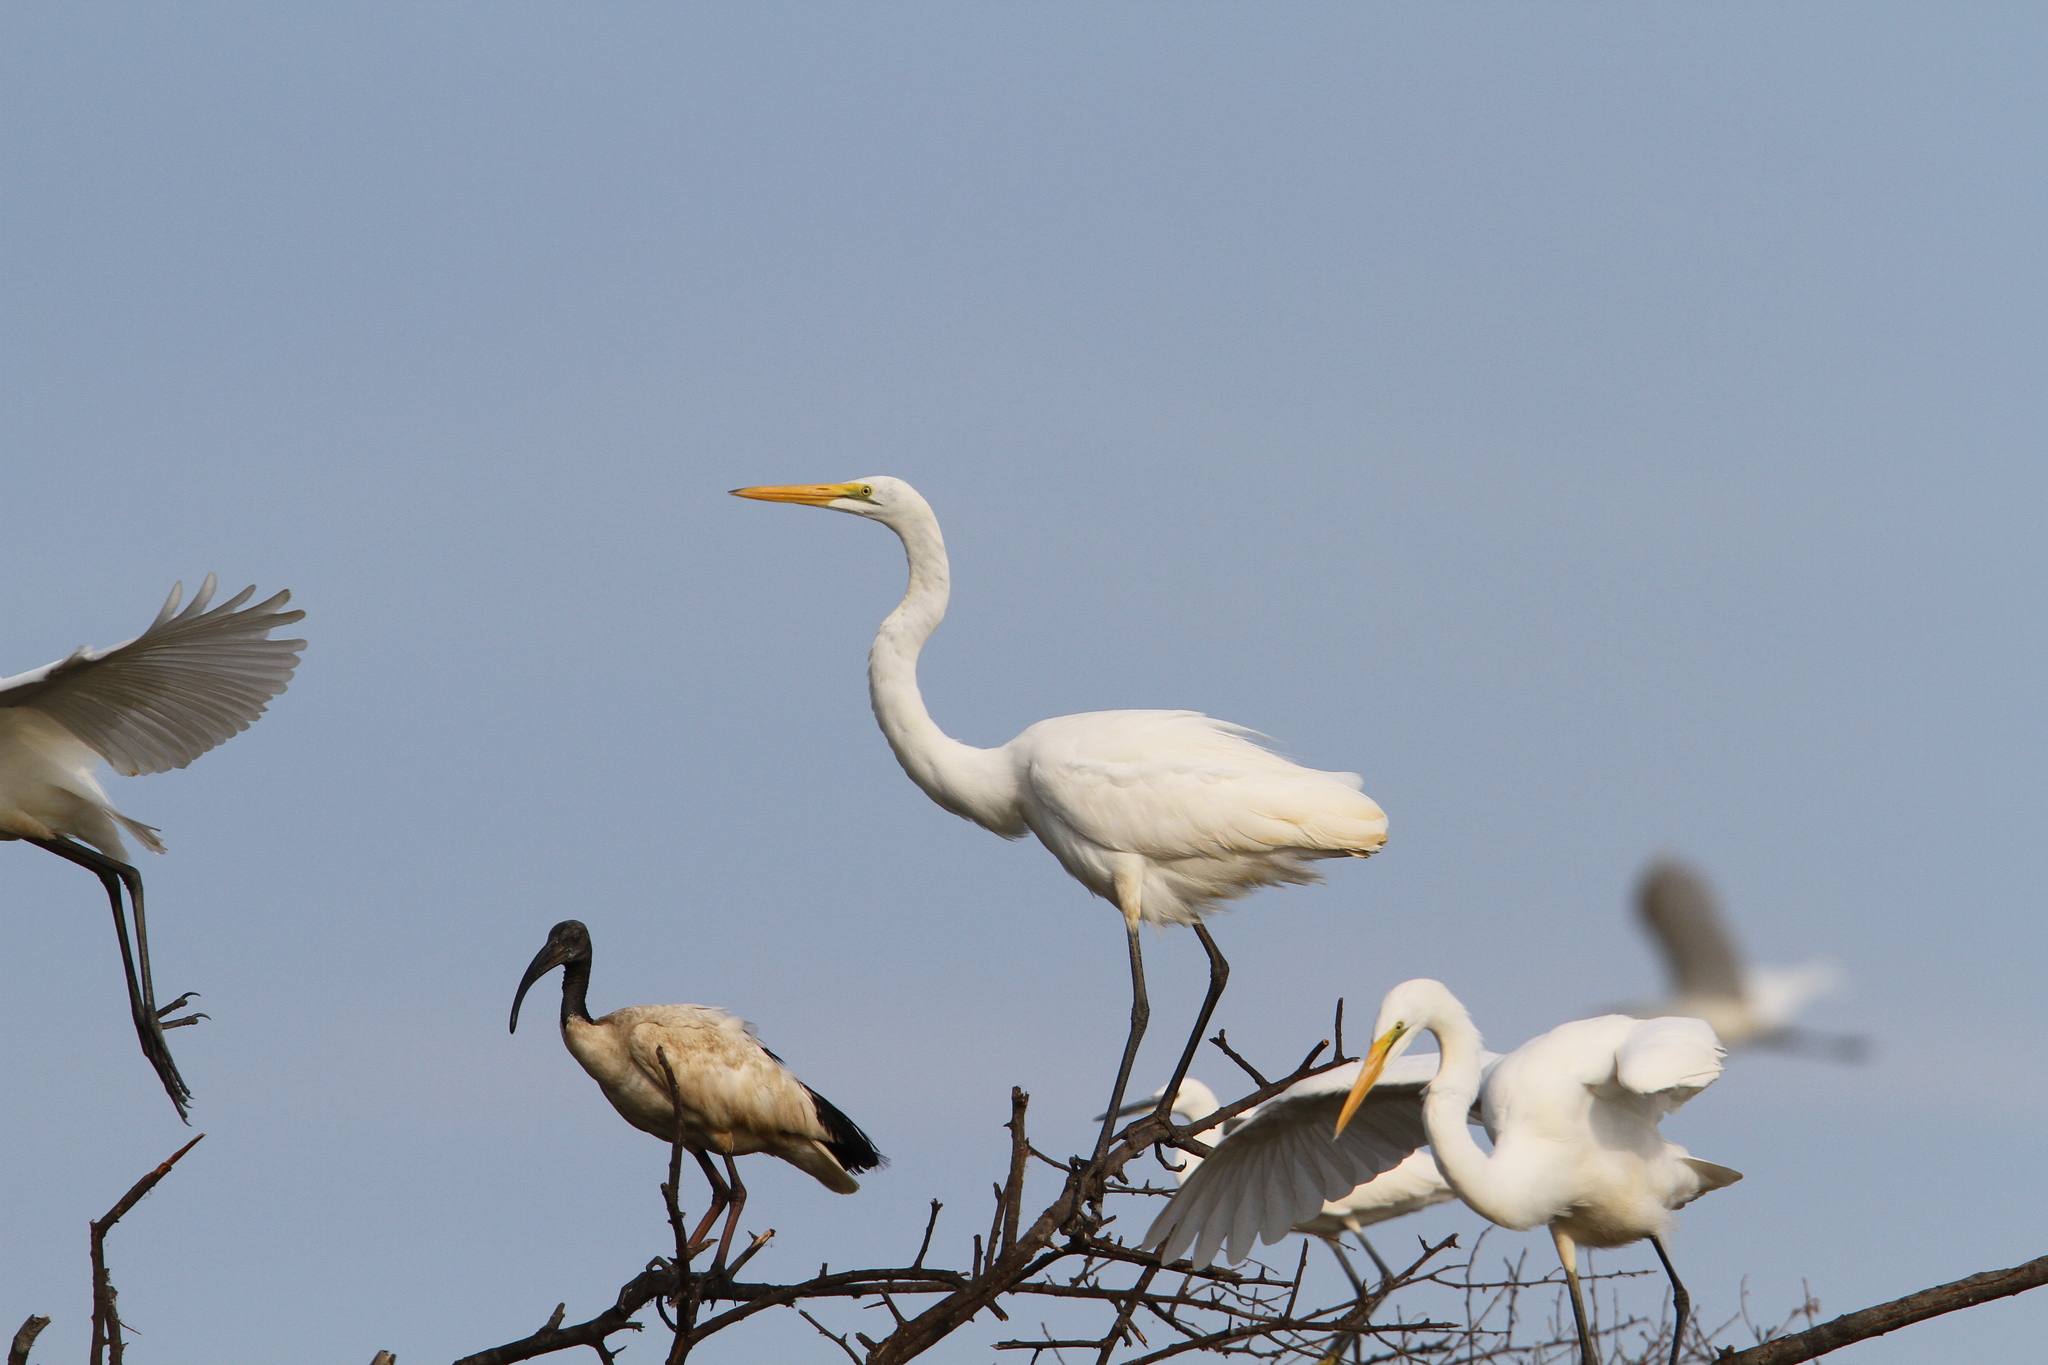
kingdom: Animalia
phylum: Chordata
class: Aves
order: Pelecaniformes
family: Ardeidae
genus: Ardea
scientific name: Ardea alba
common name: Great egret
